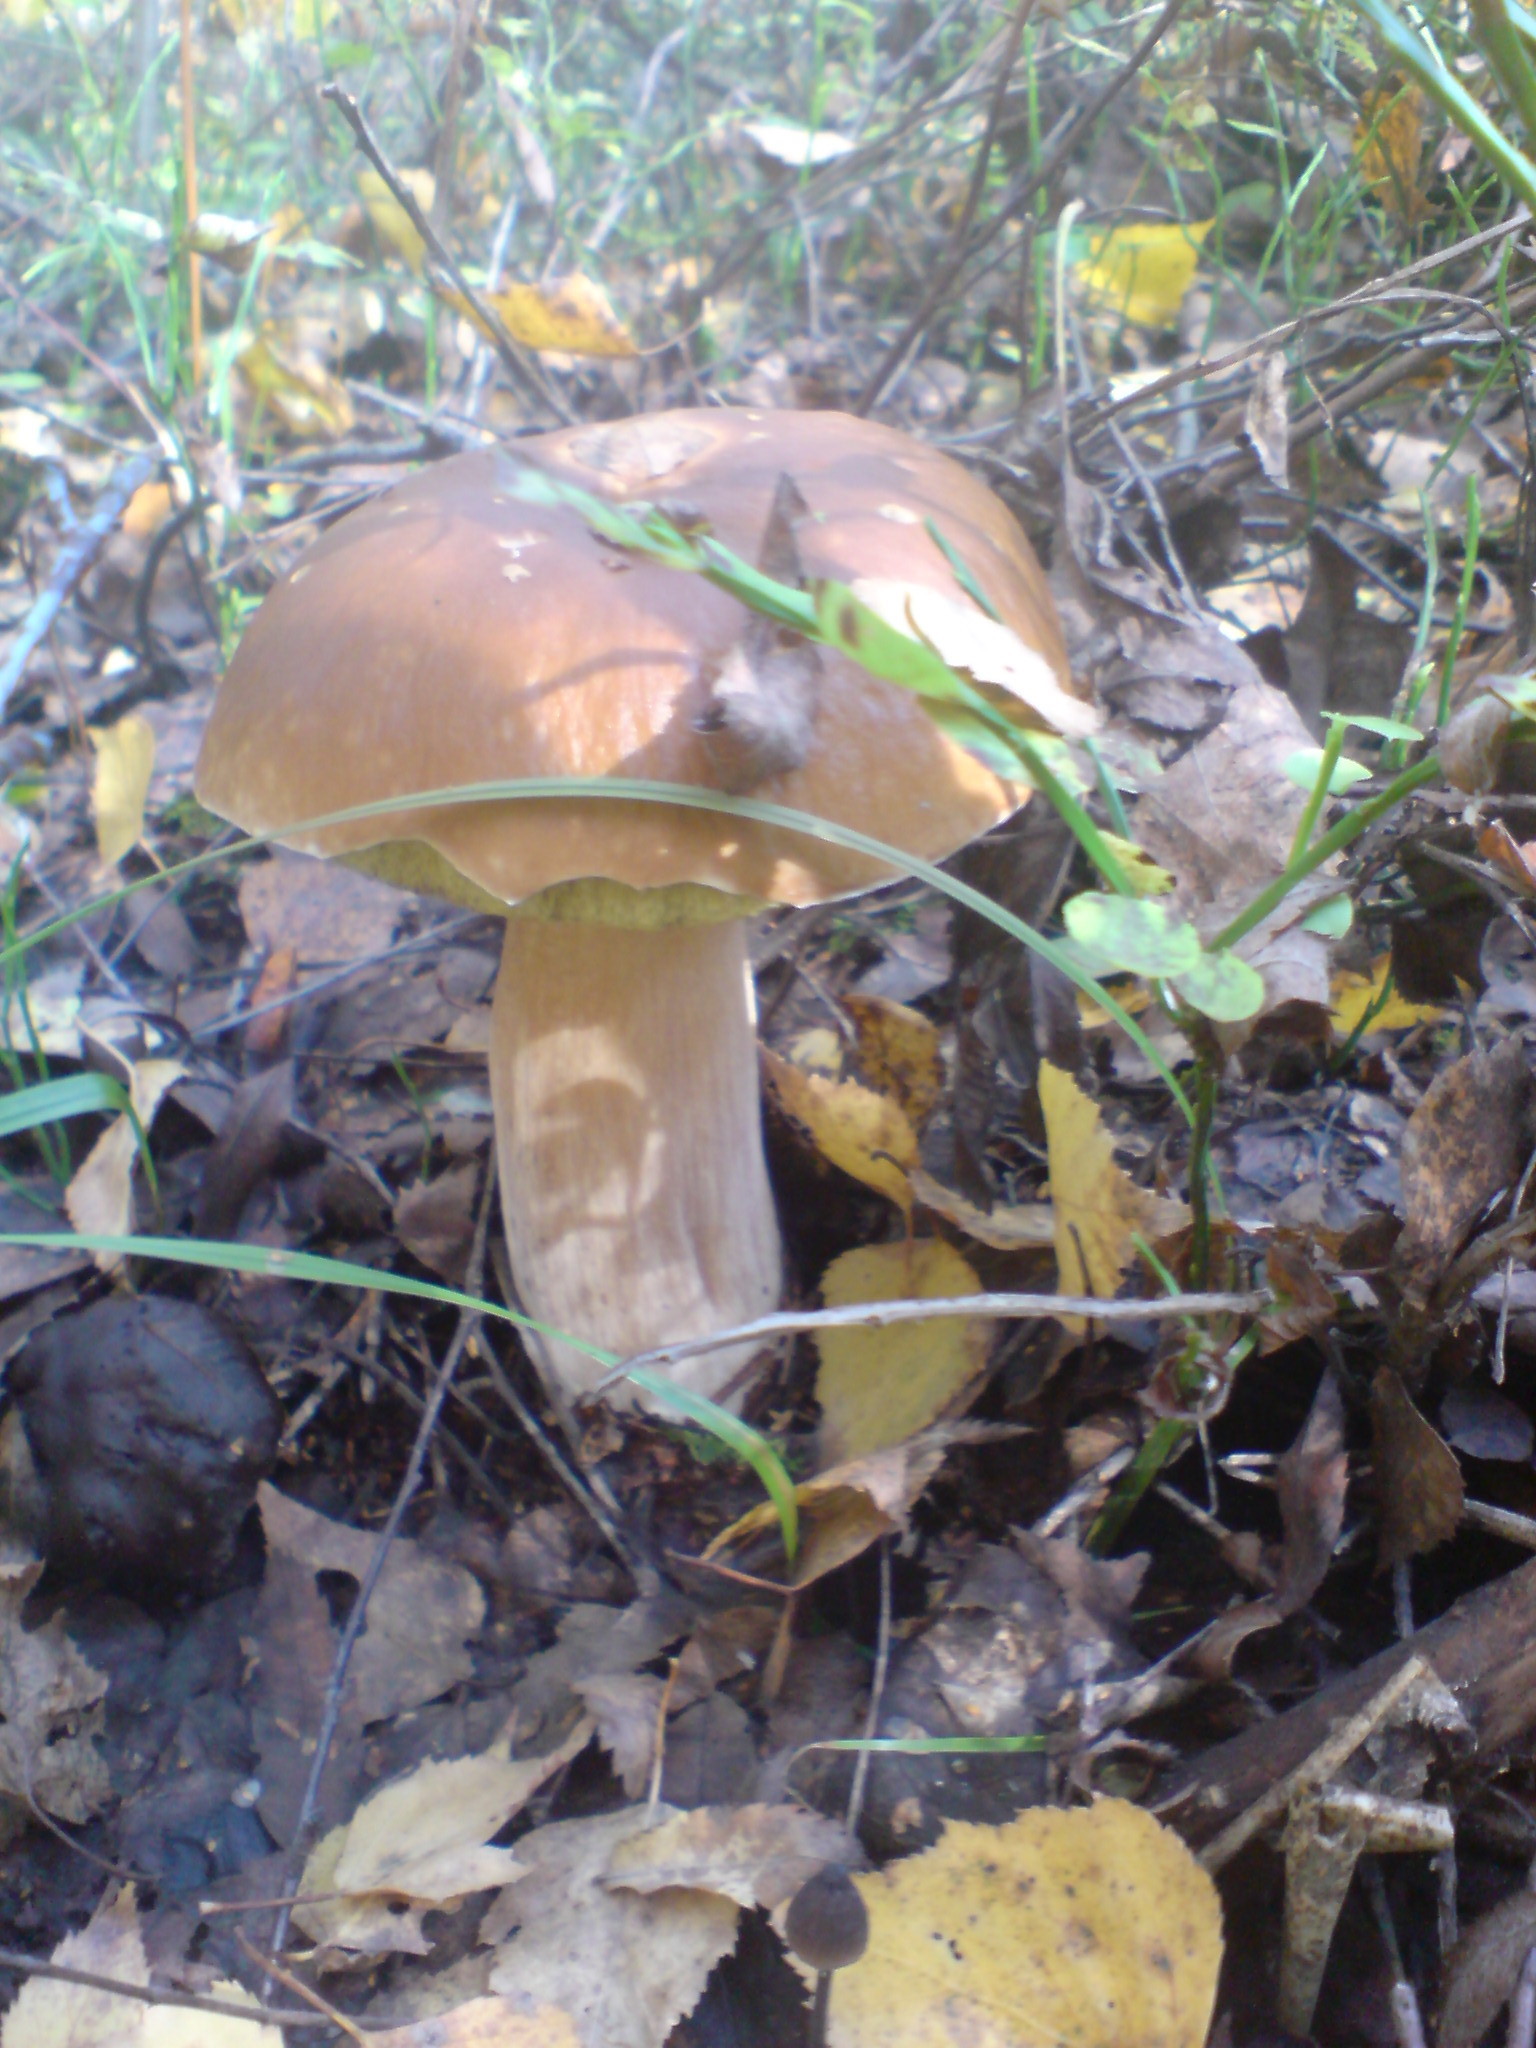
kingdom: Fungi
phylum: Basidiomycota
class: Agaricomycetes
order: Boletales
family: Boletaceae
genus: Boletus
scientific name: Boletus edulis
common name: Cep
